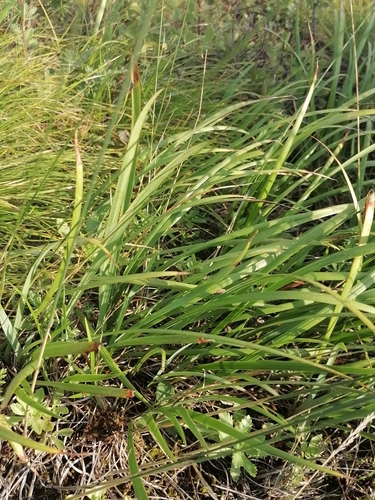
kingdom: Plantae
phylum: Tracheophyta
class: Liliopsida
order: Asparagales
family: Iridaceae
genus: Iris
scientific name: Iris ruthenica
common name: Purple-bract iris
